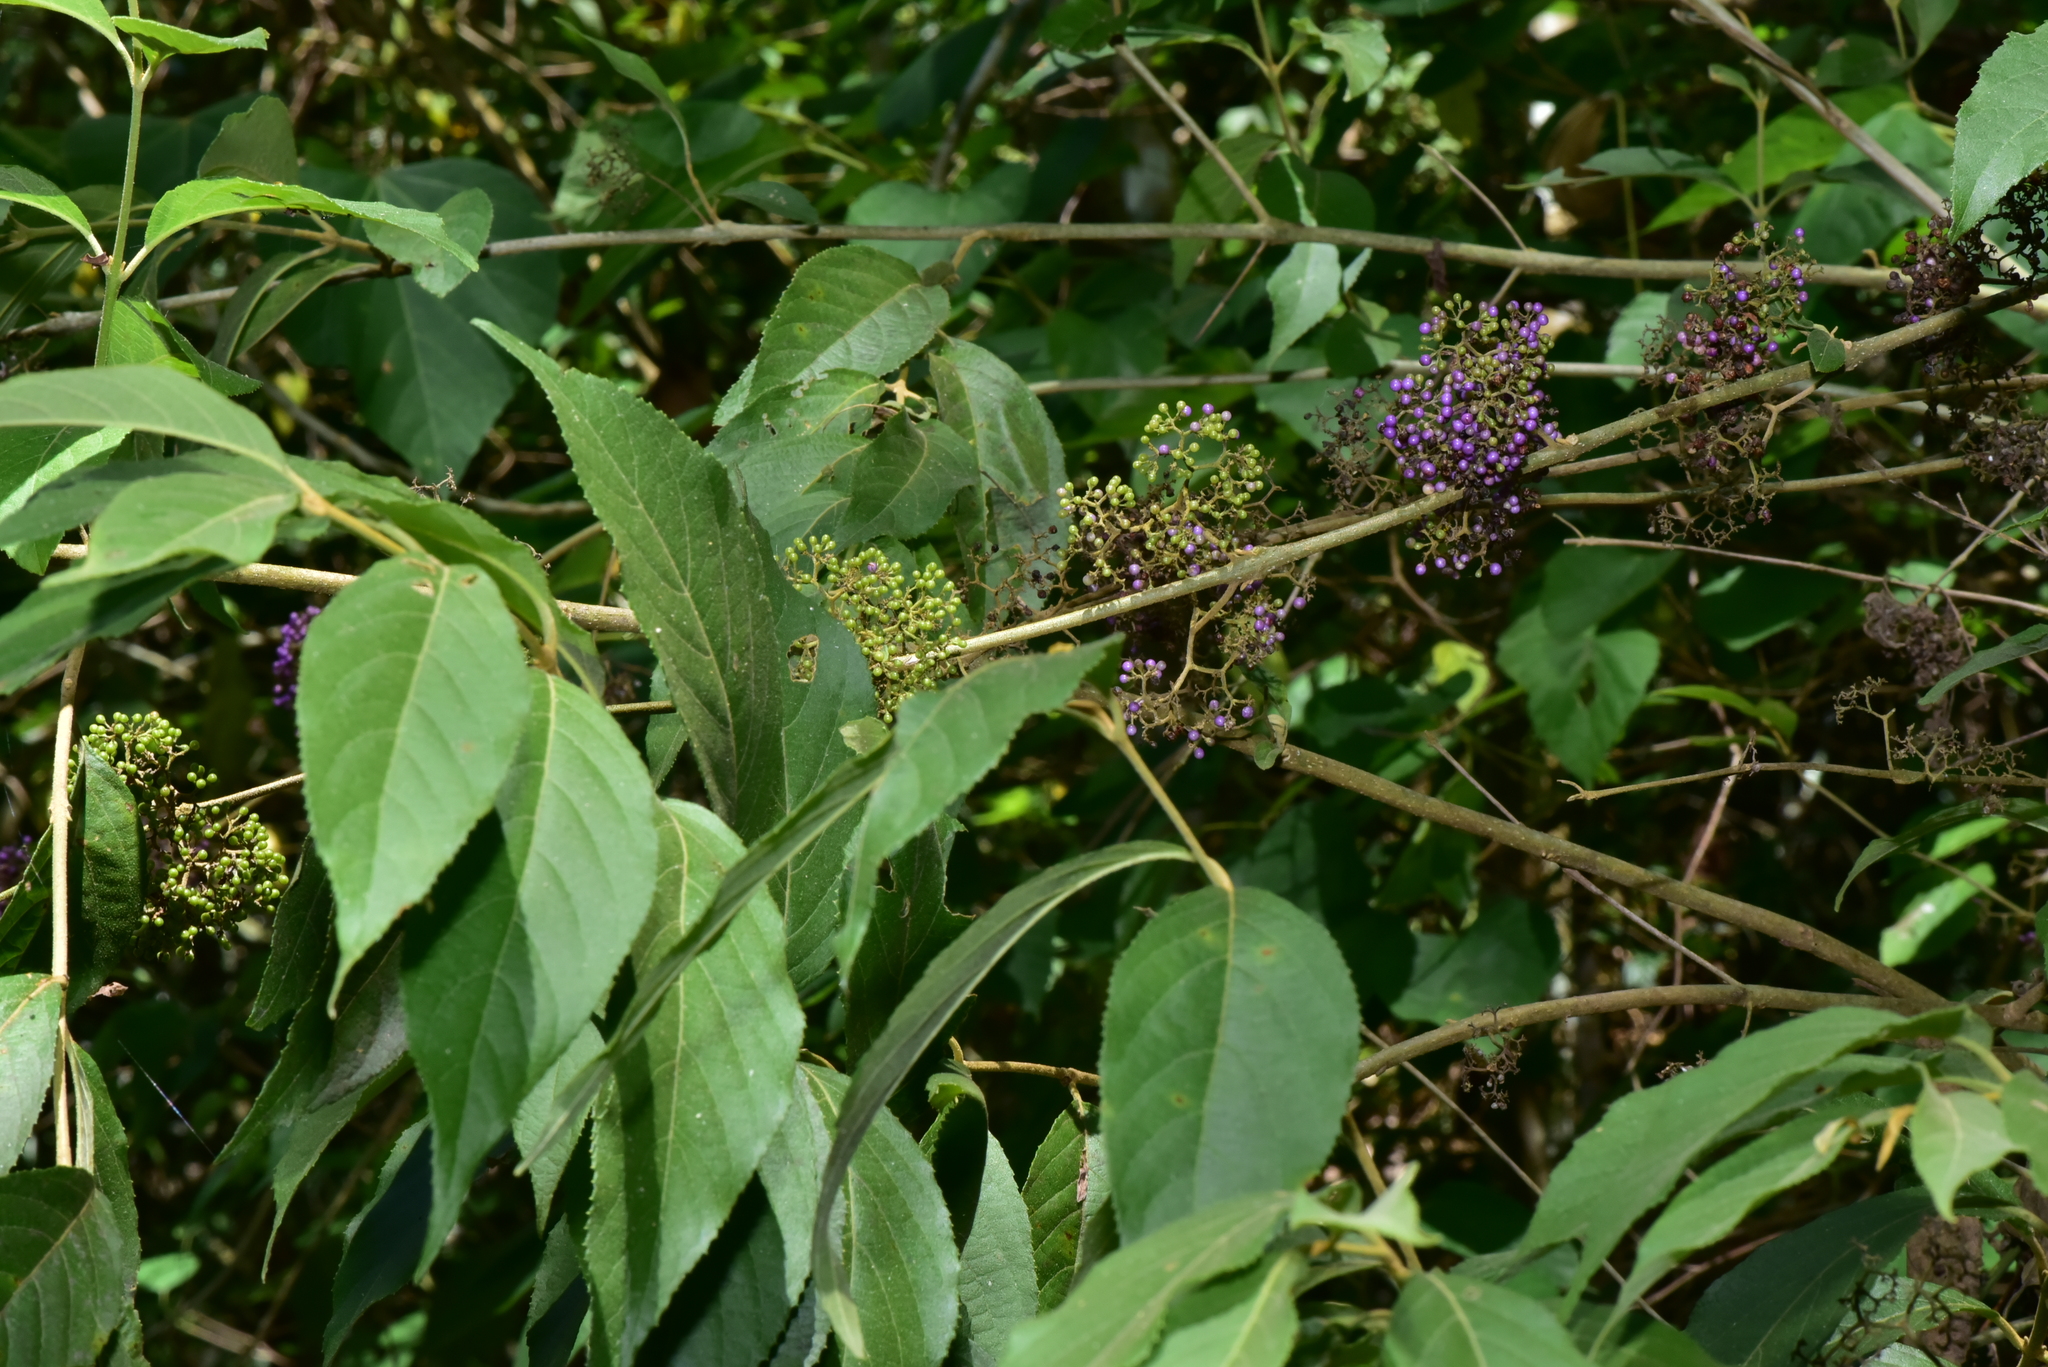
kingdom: Plantae
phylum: Tracheophyta
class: Magnoliopsida
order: Lamiales
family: Lamiaceae
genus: Callicarpa
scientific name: Callicarpa pedunculata
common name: Velvetleaf
